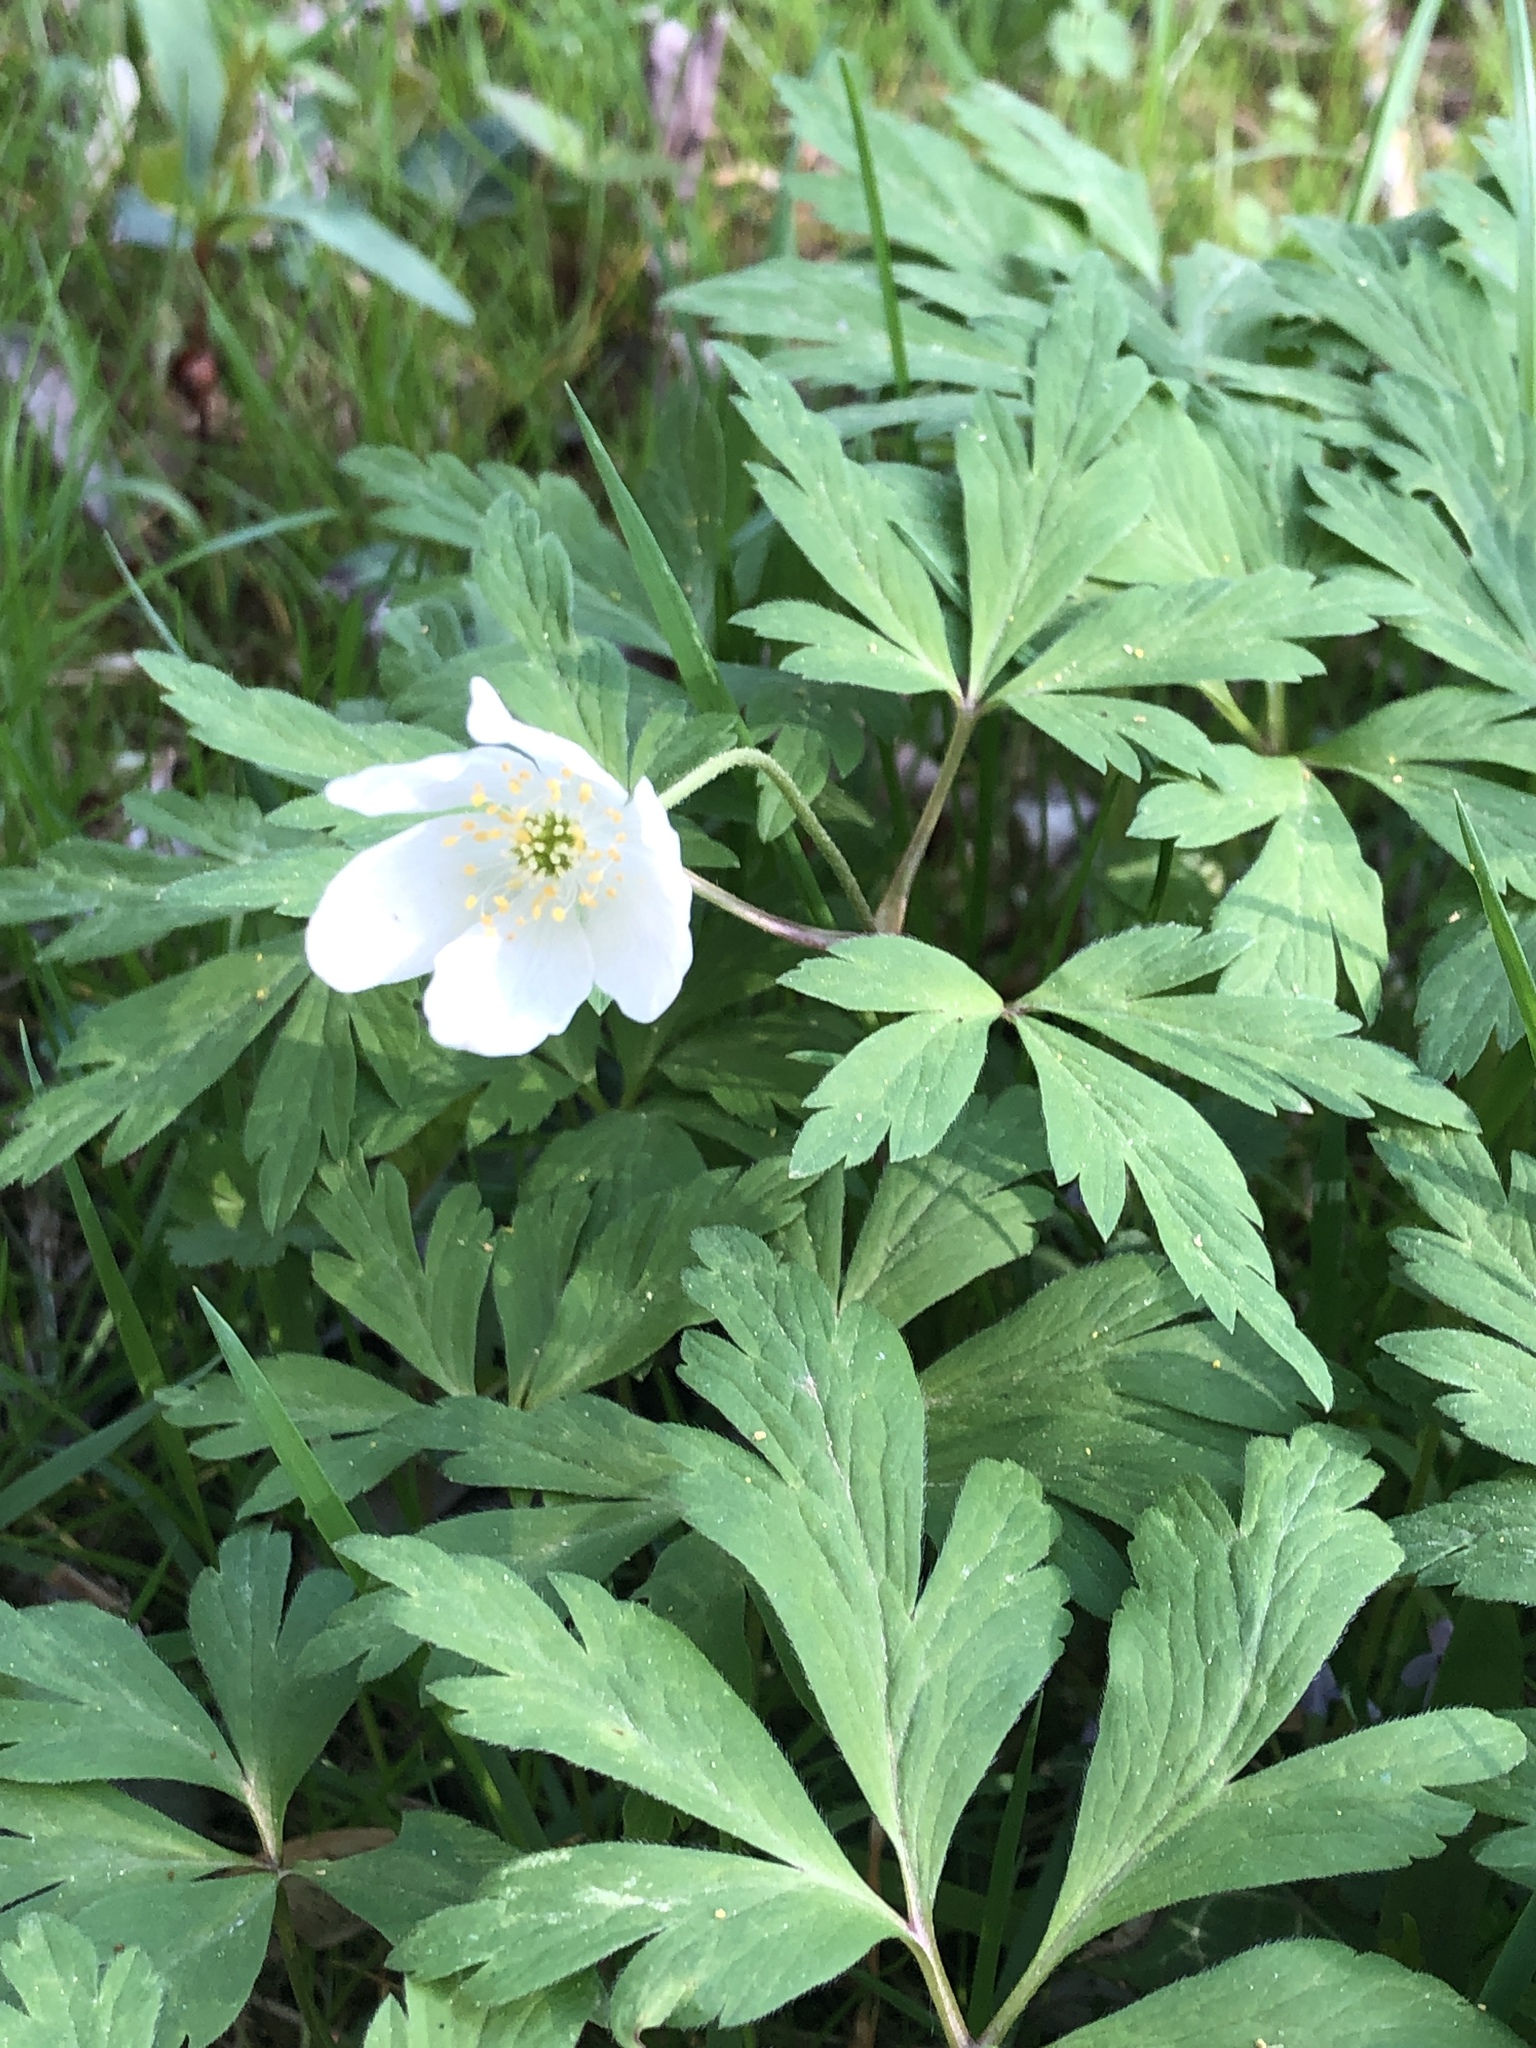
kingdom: Plantae
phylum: Tracheophyta
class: Magnoliopsida
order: Ranunculales
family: Ranunculaceae
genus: Anemone
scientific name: Anemone nemorosa
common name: Wood anemone
